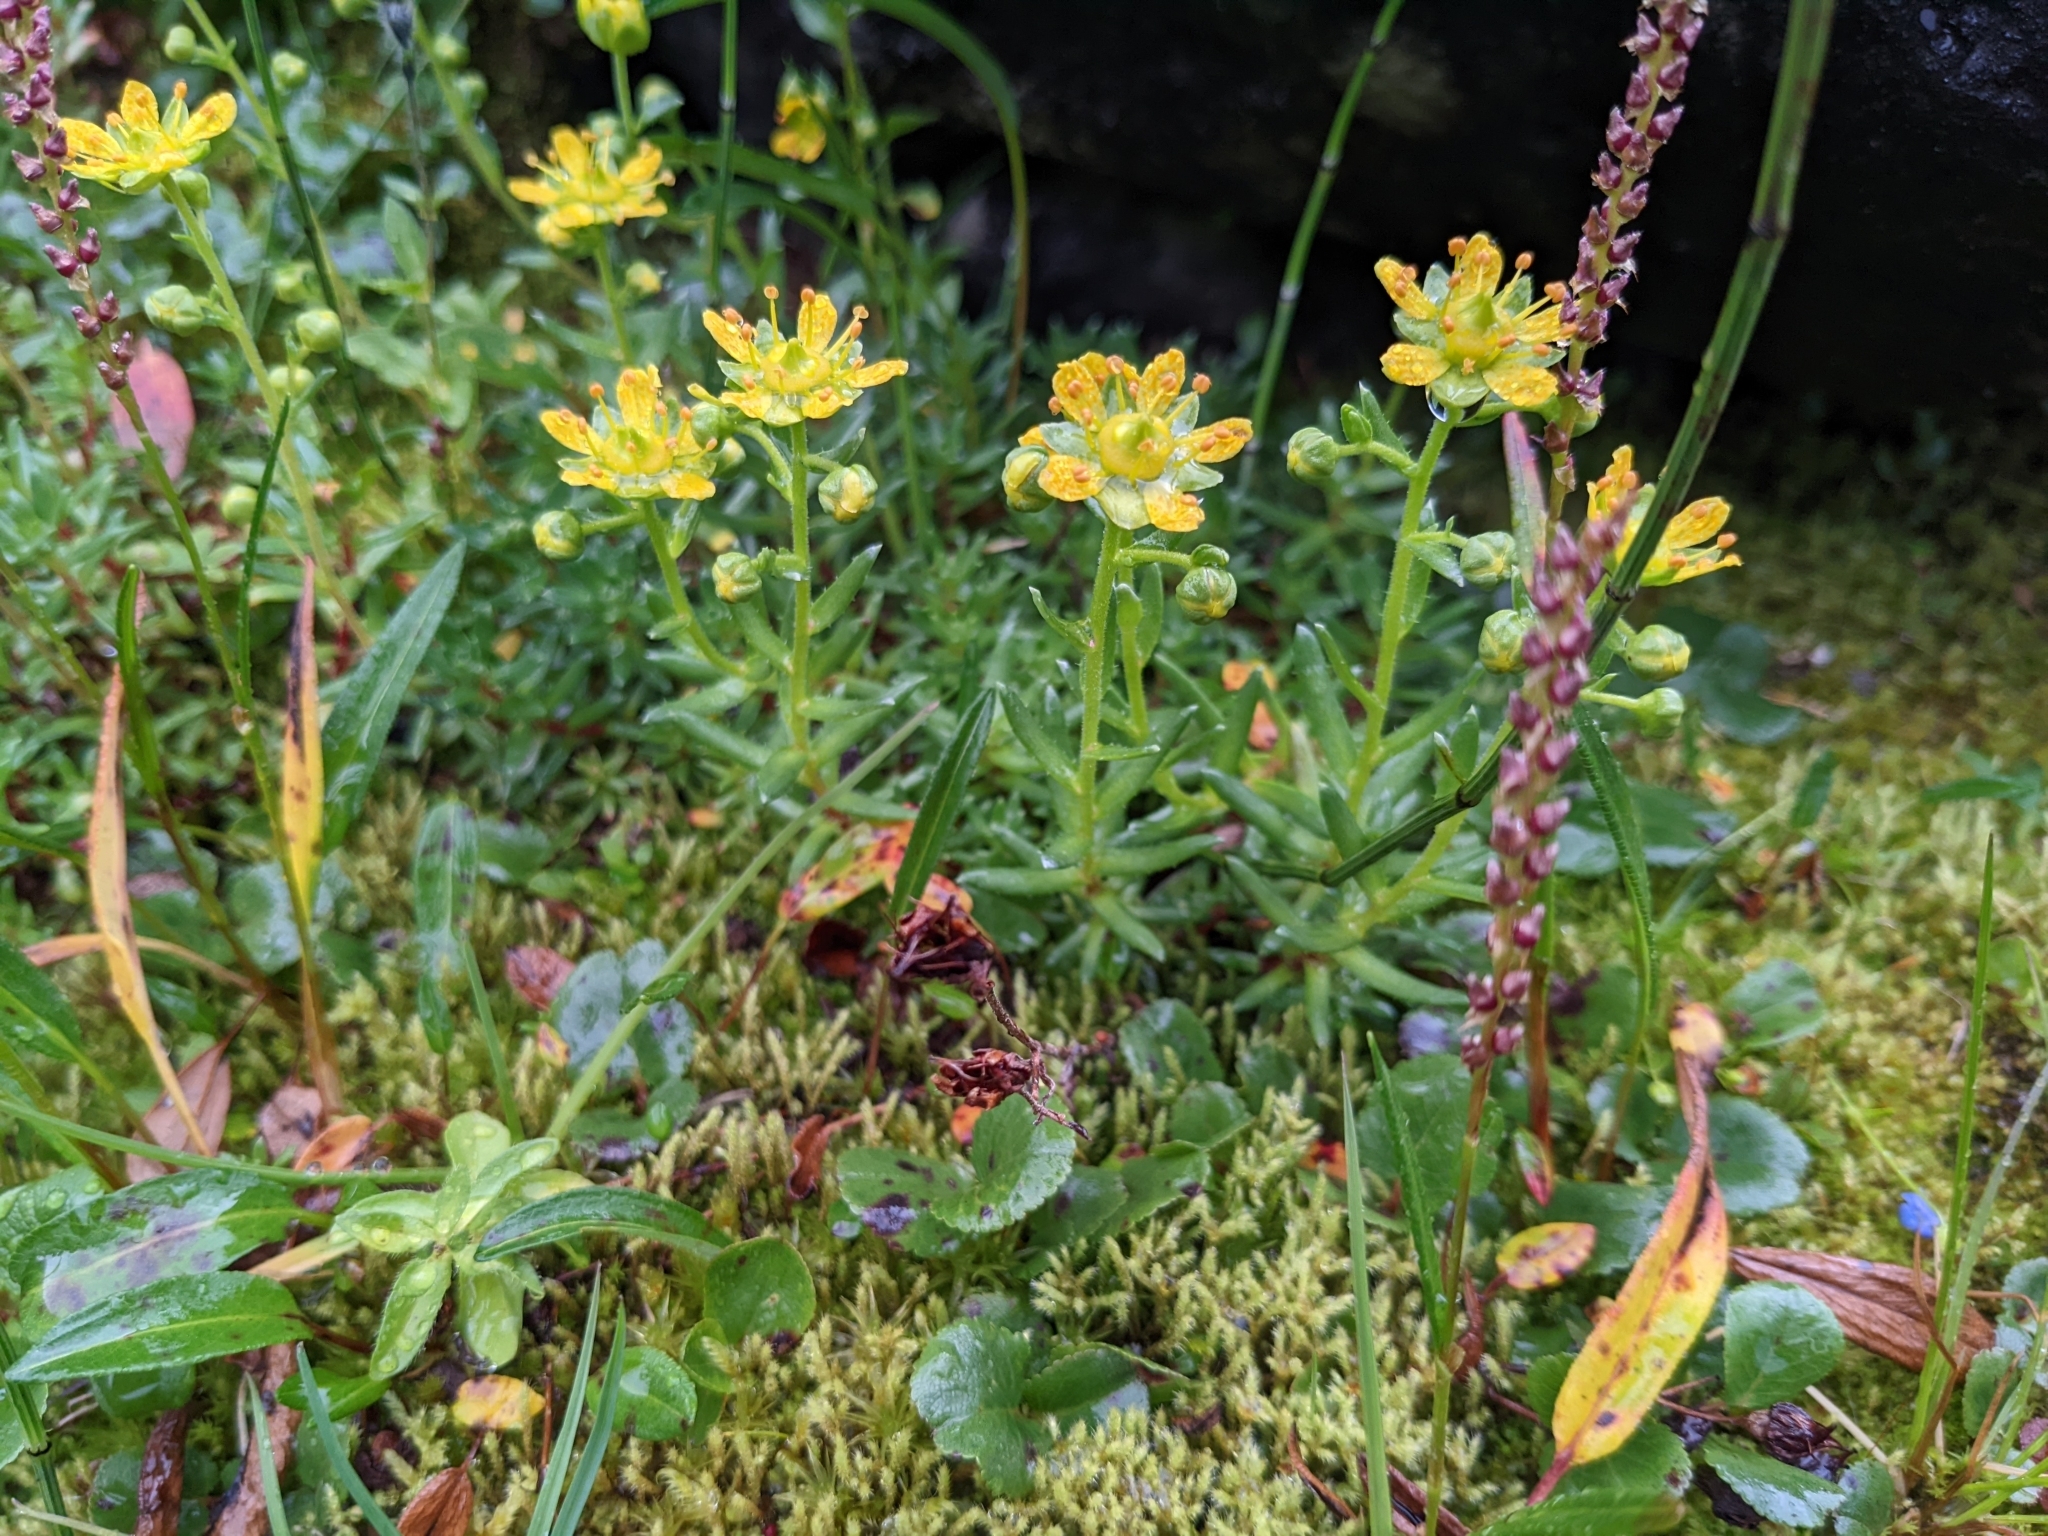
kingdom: Plantae
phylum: Tracheophyta
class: Magnoliopsida
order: Saxifragales
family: Saxifragaceae
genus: Saxifraga
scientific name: Saxifraga aizoides
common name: Yellow mountain saxifrage
